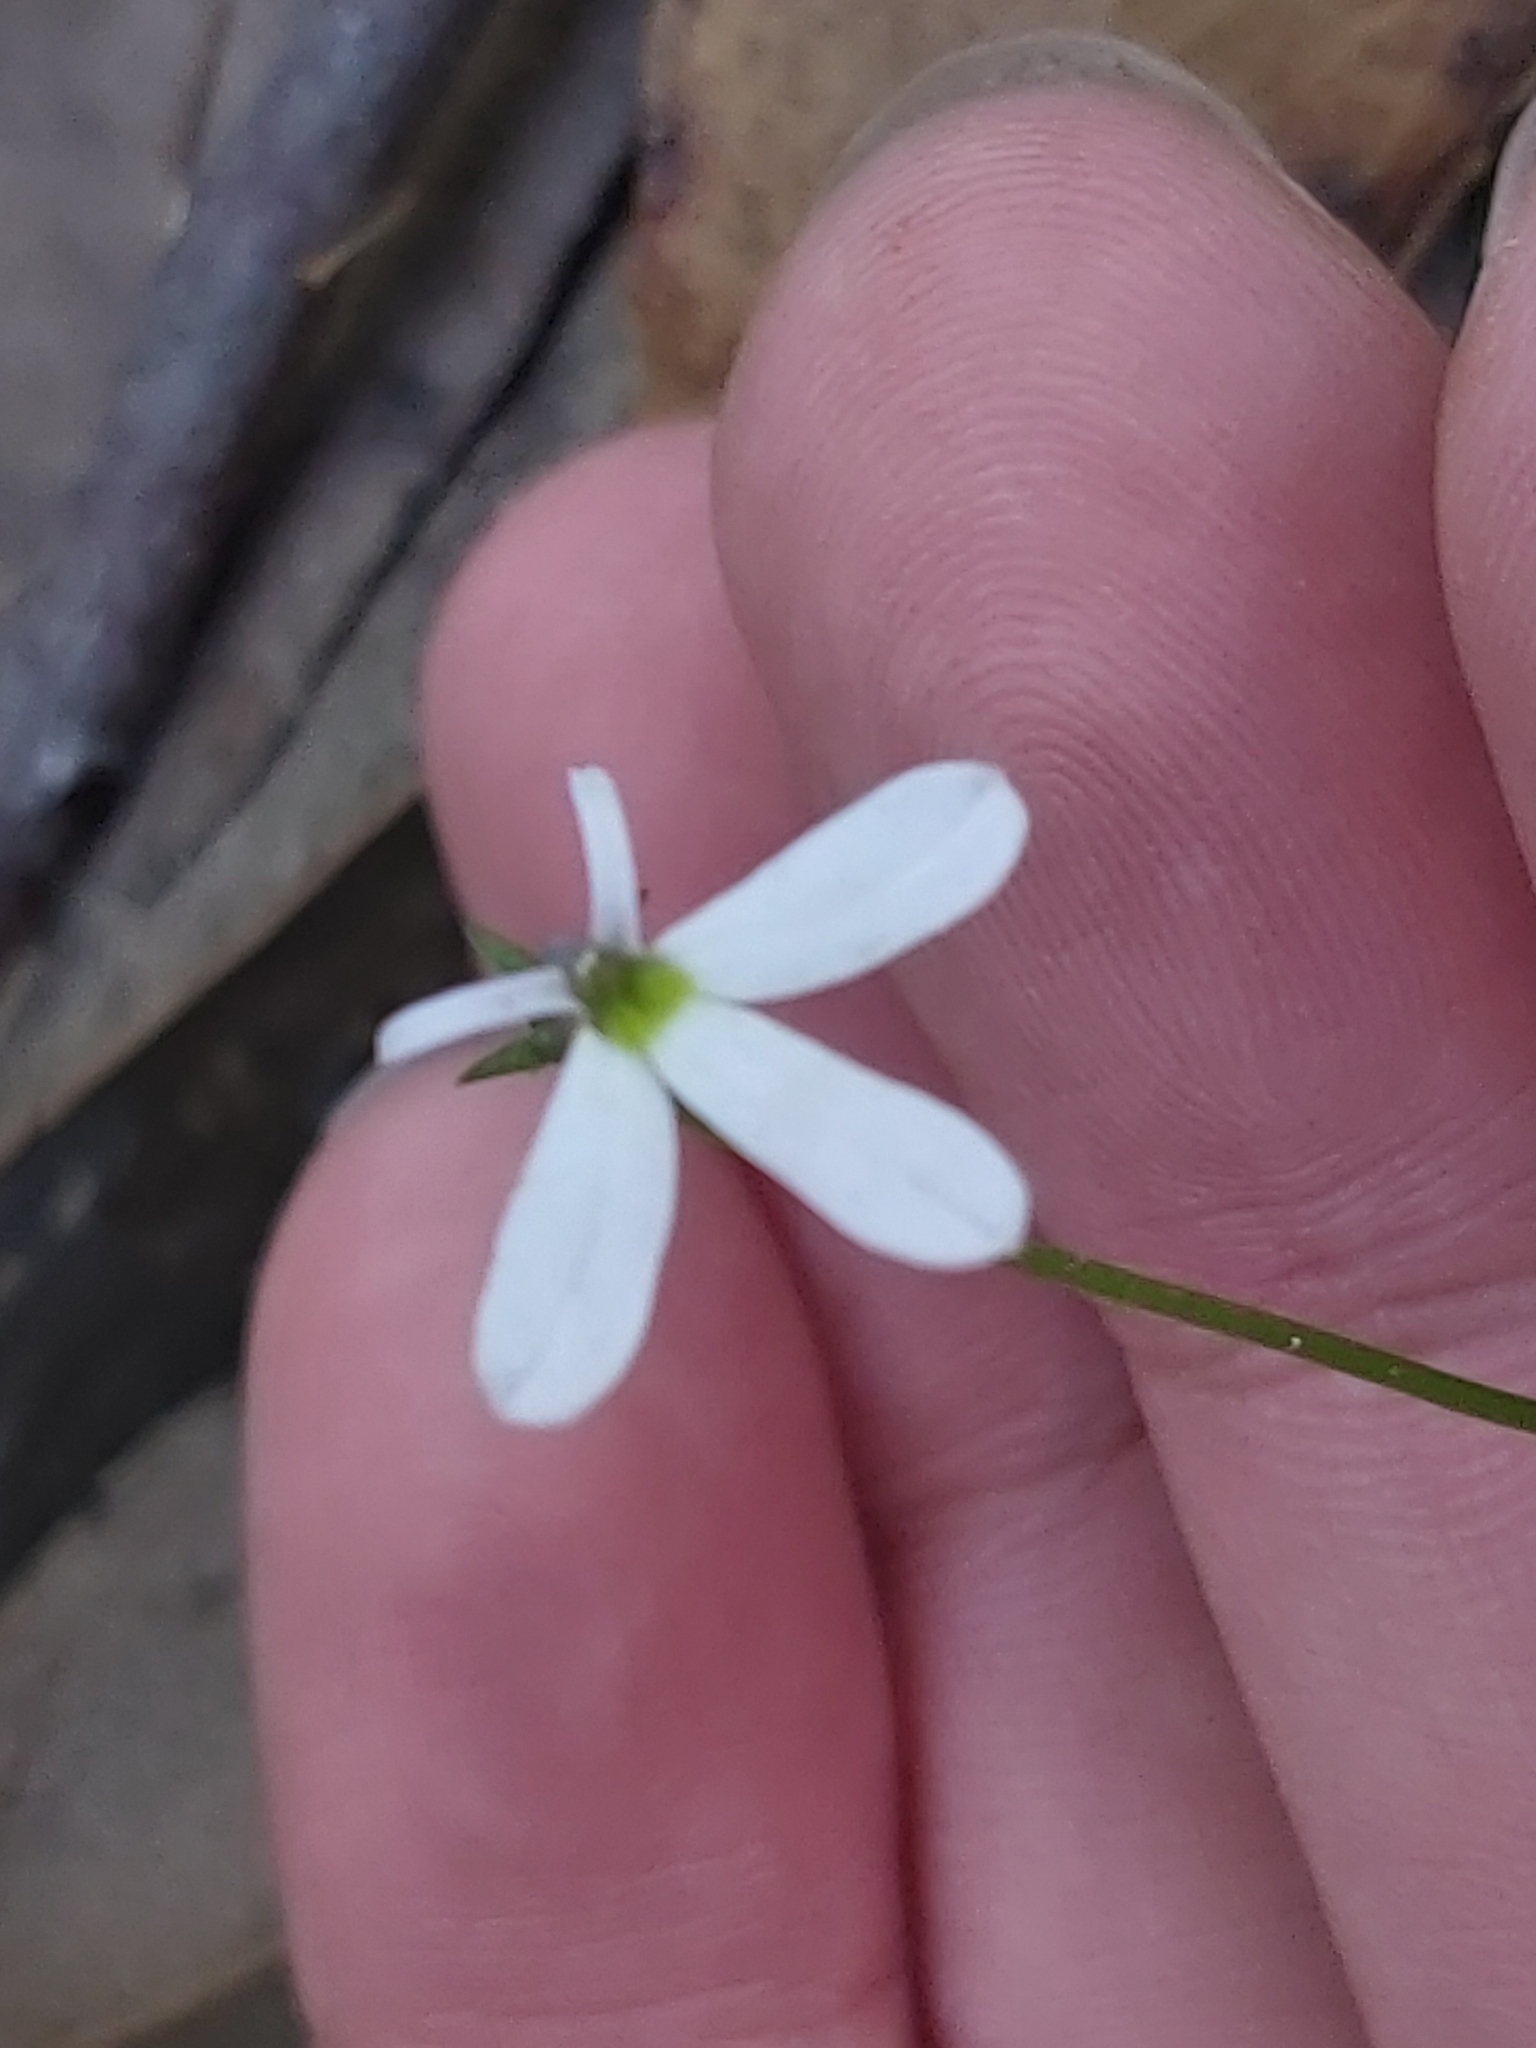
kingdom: Plantae
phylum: Tracheophyta
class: Magnoliopsida
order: Asterales
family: Campanulaceae
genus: Lobelia
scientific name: Lobelia purpurascens
